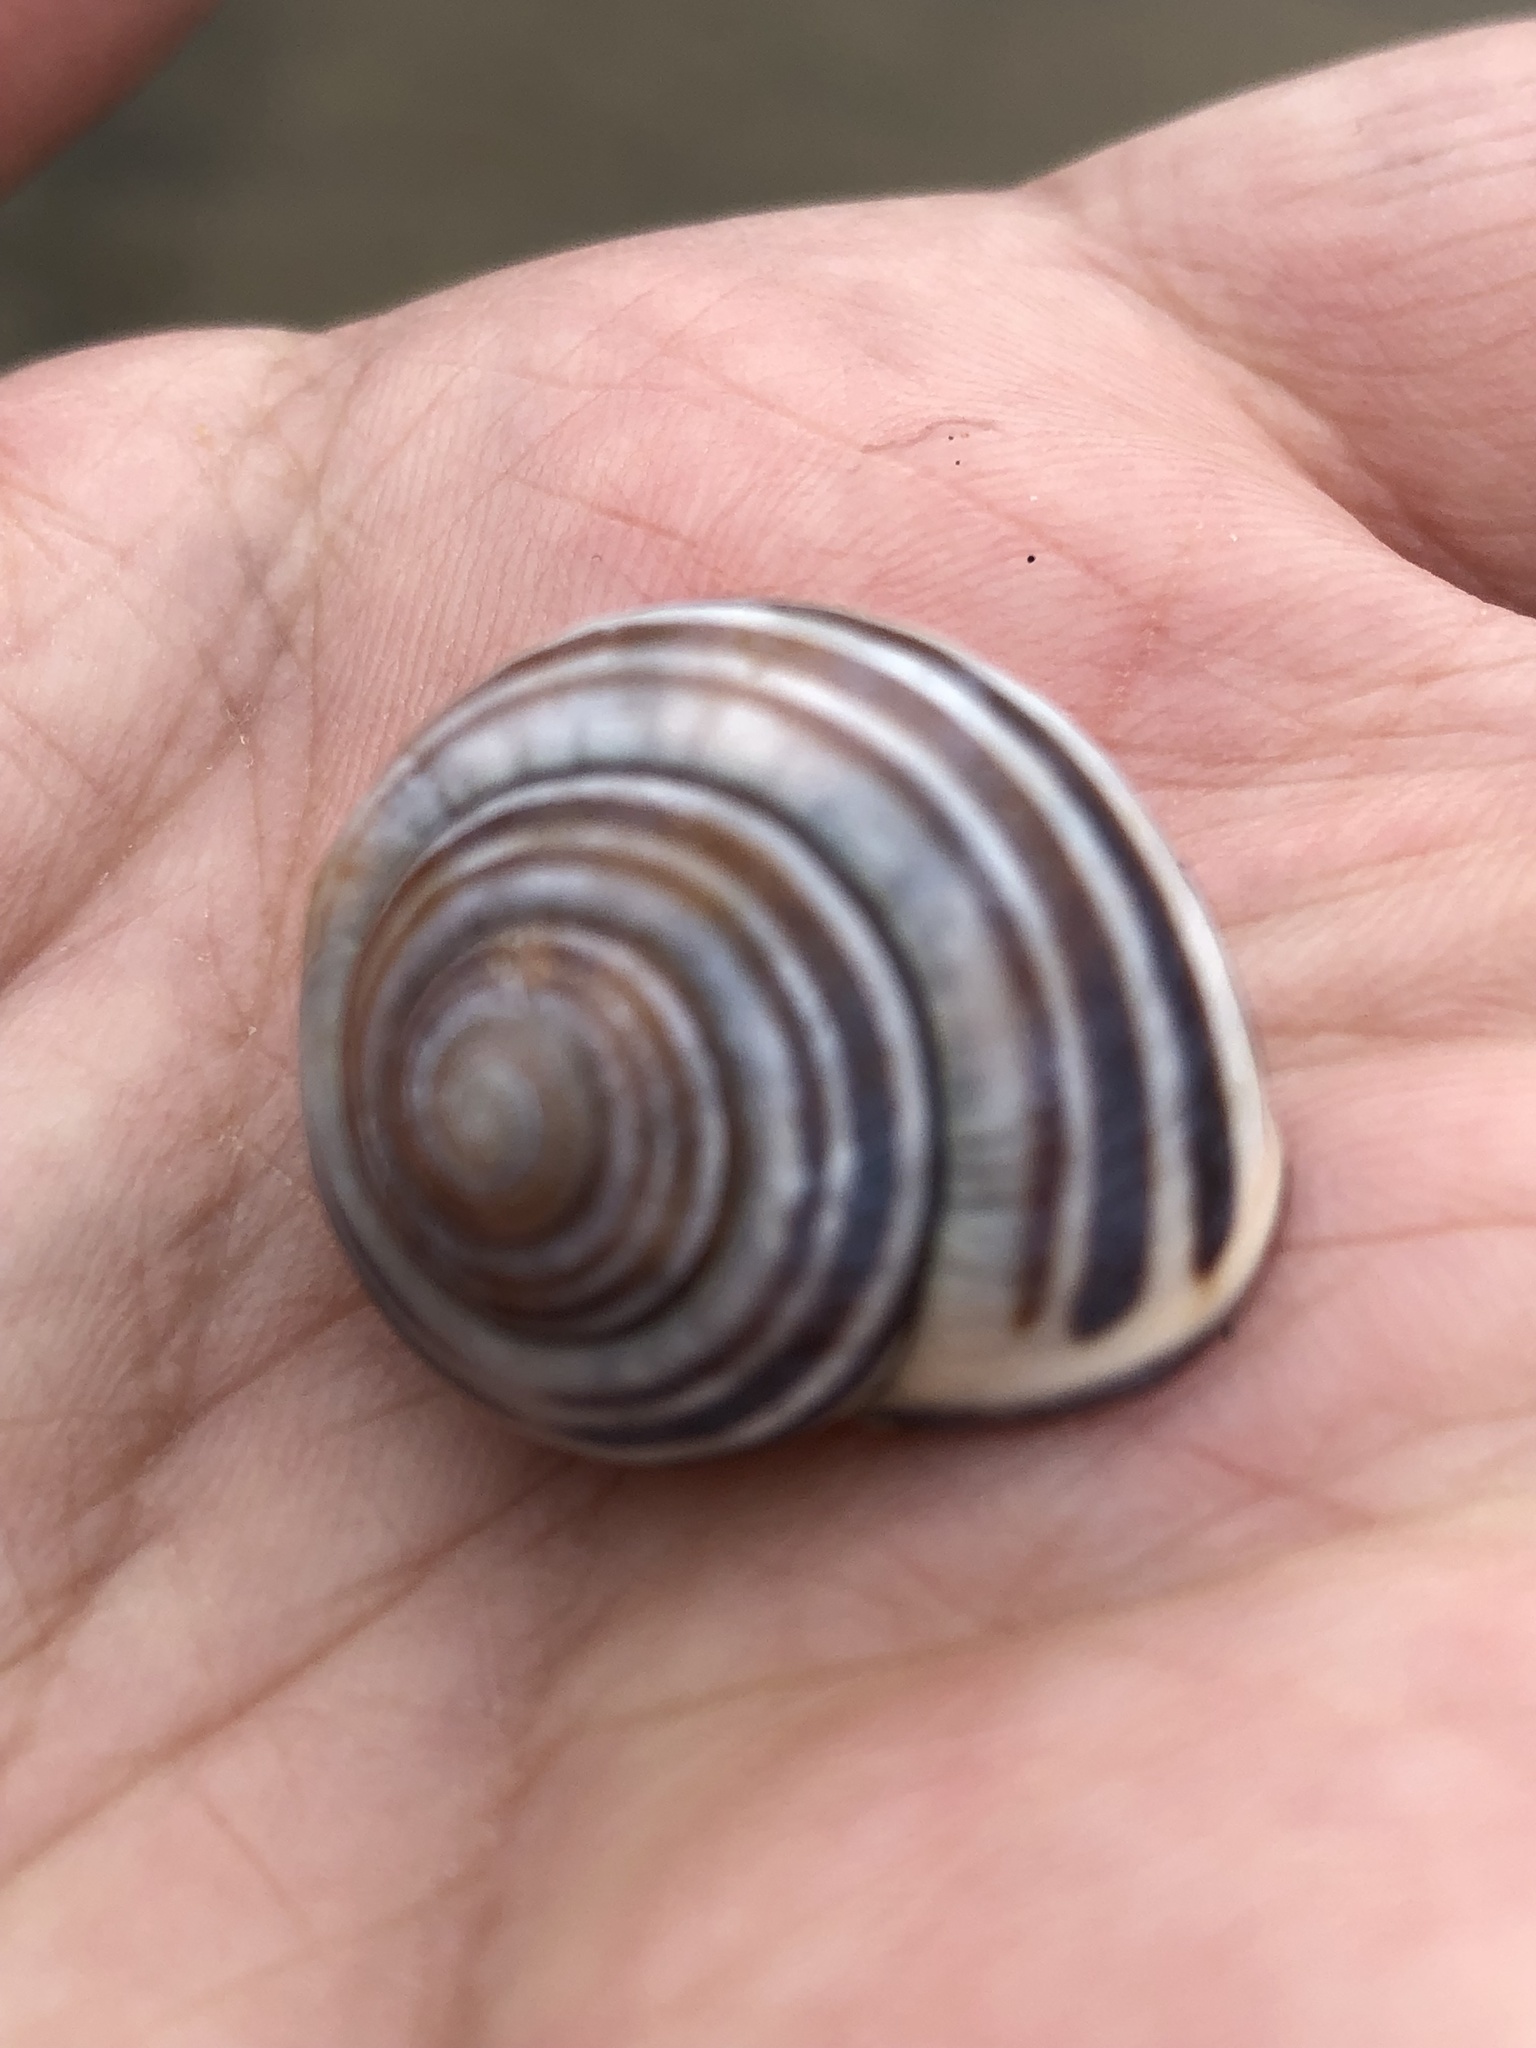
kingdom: Animalia
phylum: Mollusca
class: Gastropoda
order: Stylommatophora
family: Helicidae
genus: Cepaea
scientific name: Cepaea nemoralis
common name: Grovesnail
